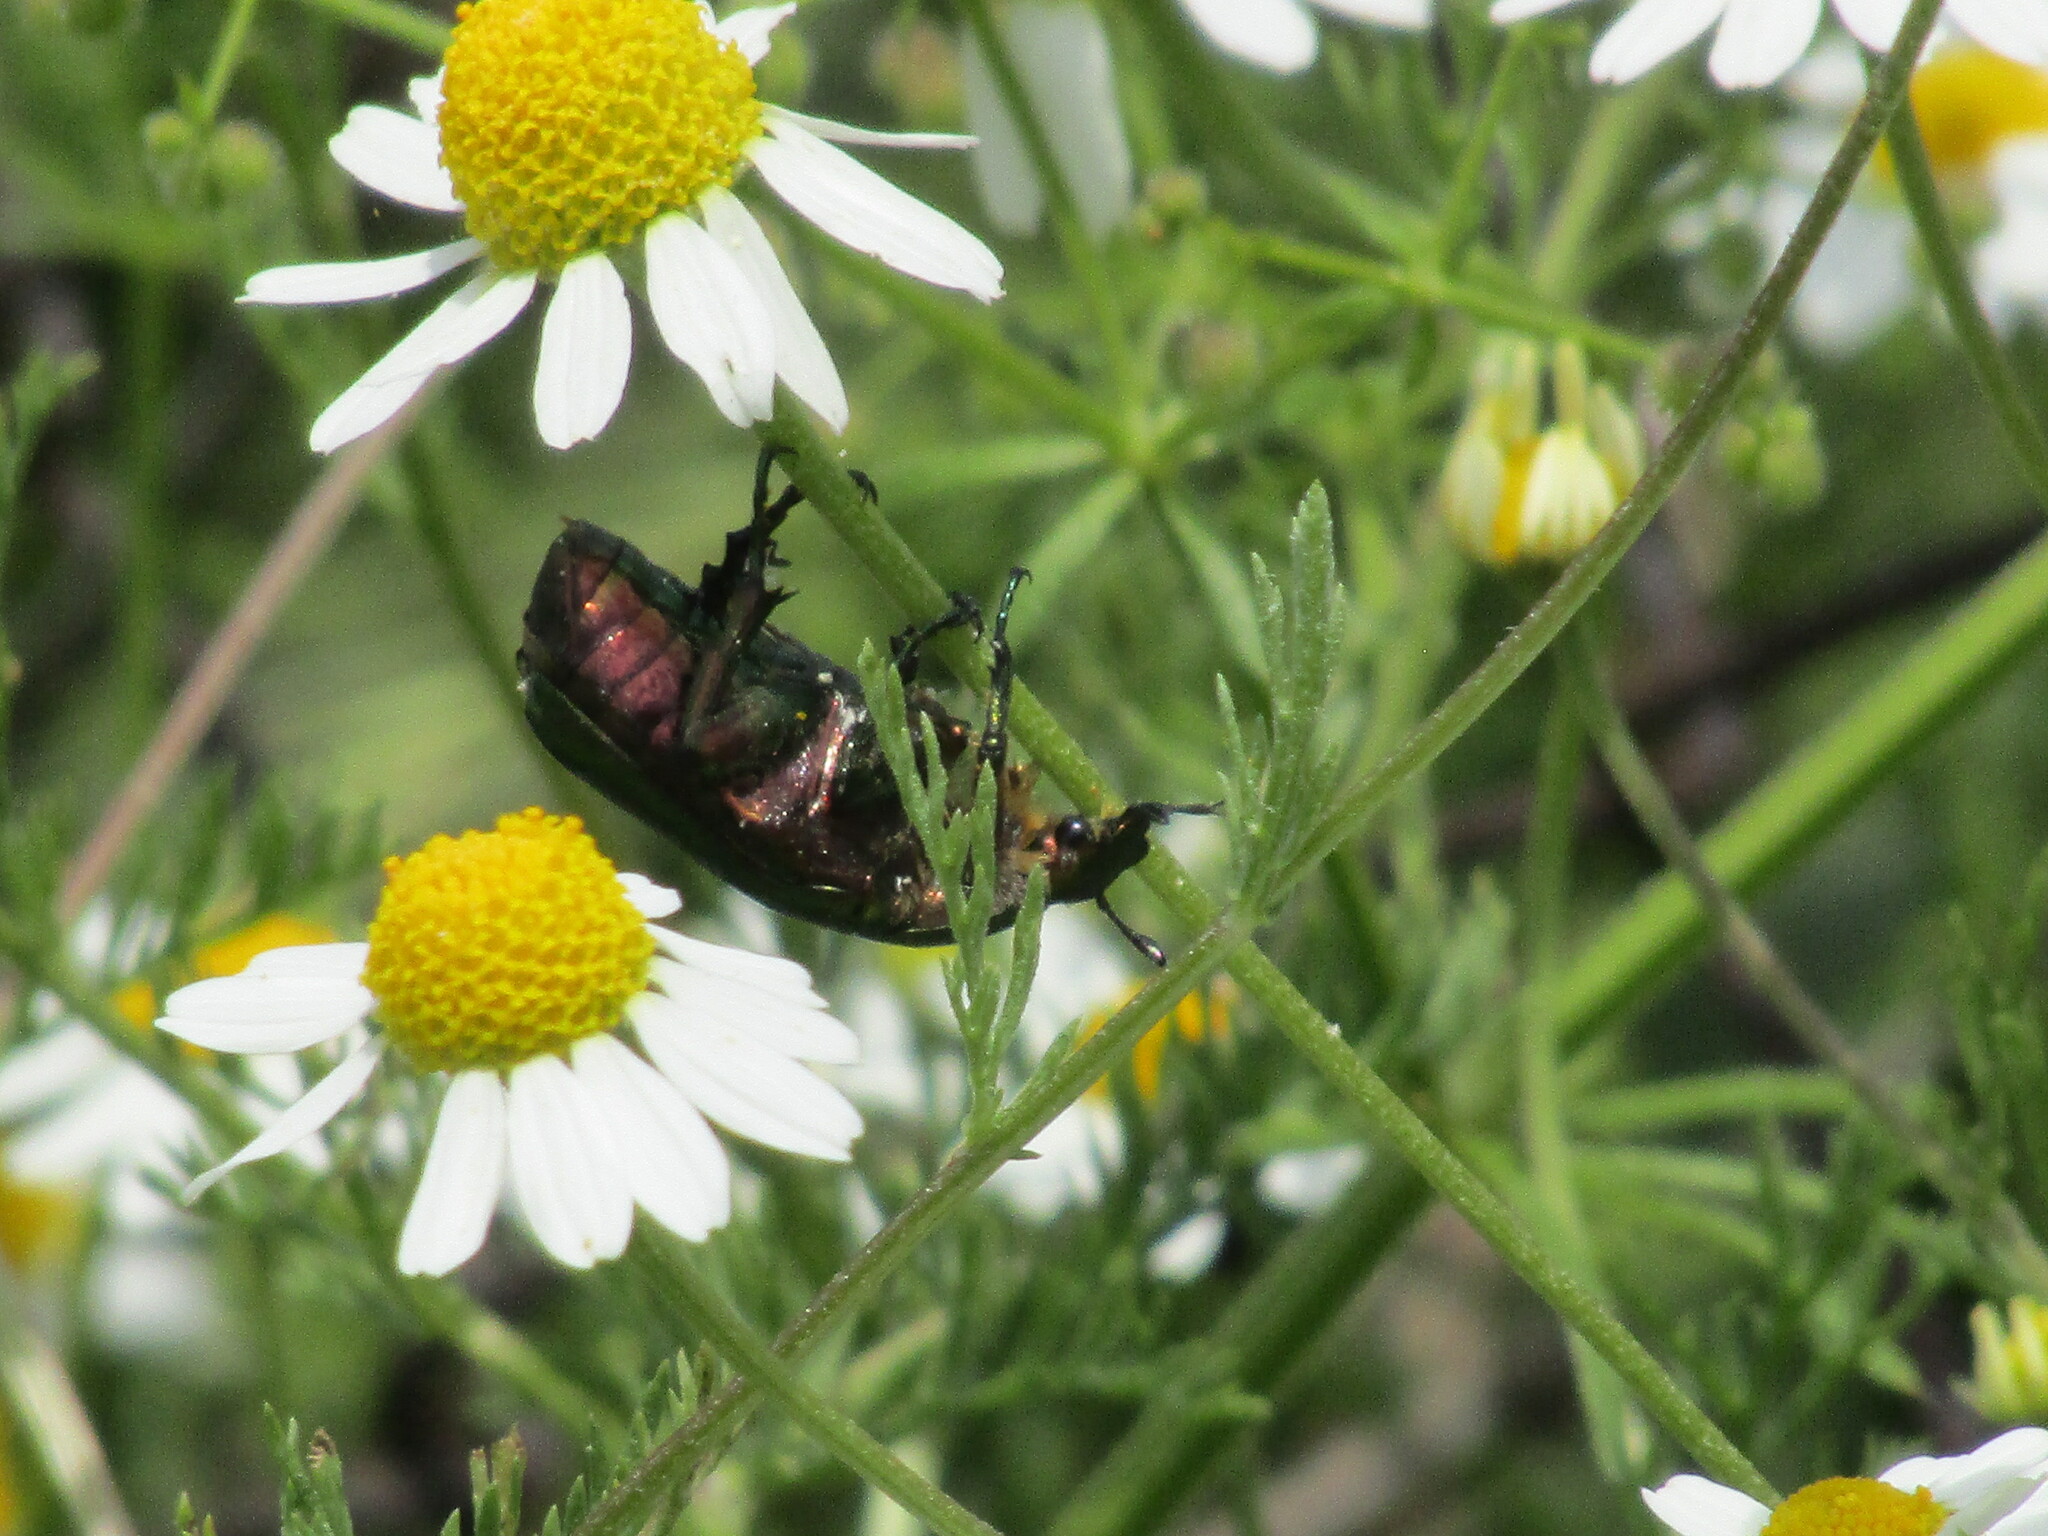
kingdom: Animalia
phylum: Arthropoda
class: Insecta
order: Coleoptera
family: Scarabaeidae
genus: Cetonia
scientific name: Cetonia aurata
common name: Rose chafer
